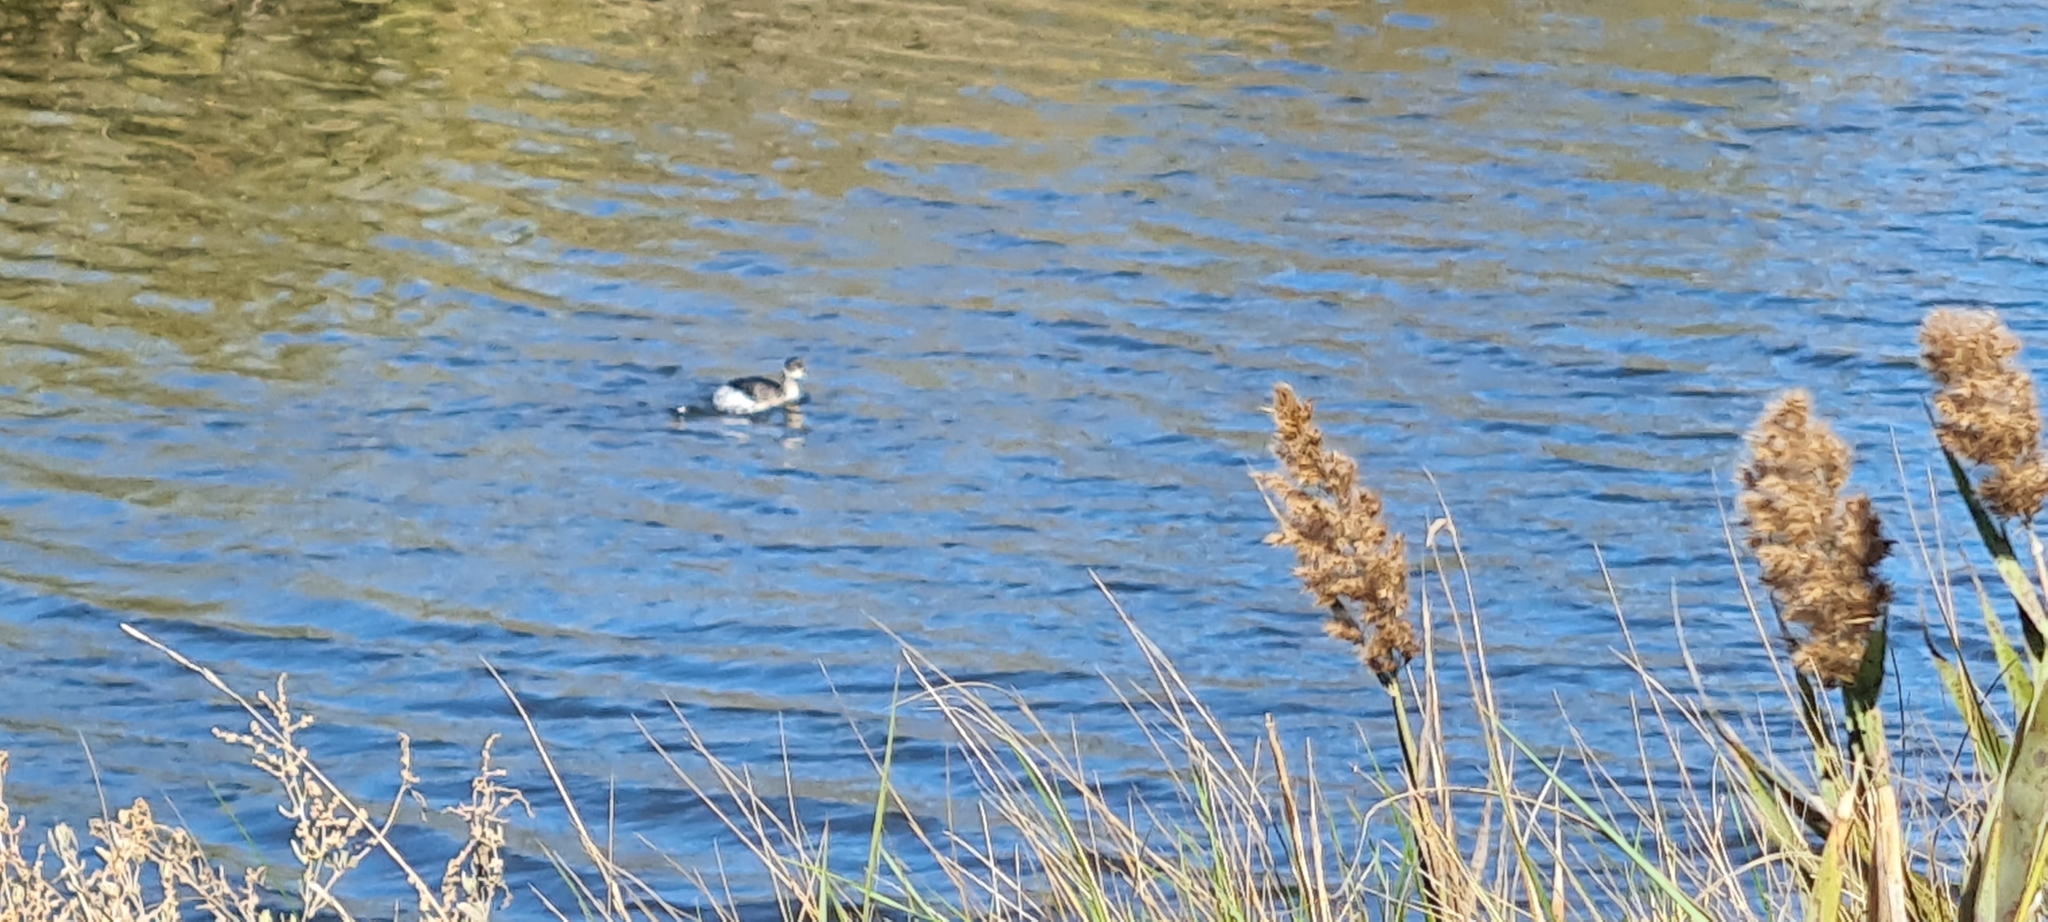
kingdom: Animalia
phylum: Chordata
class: Aves
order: Podicipediformes
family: Podicipedidae
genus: Podiceps
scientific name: Podiceps nigricollis
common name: Black-necked grebe
